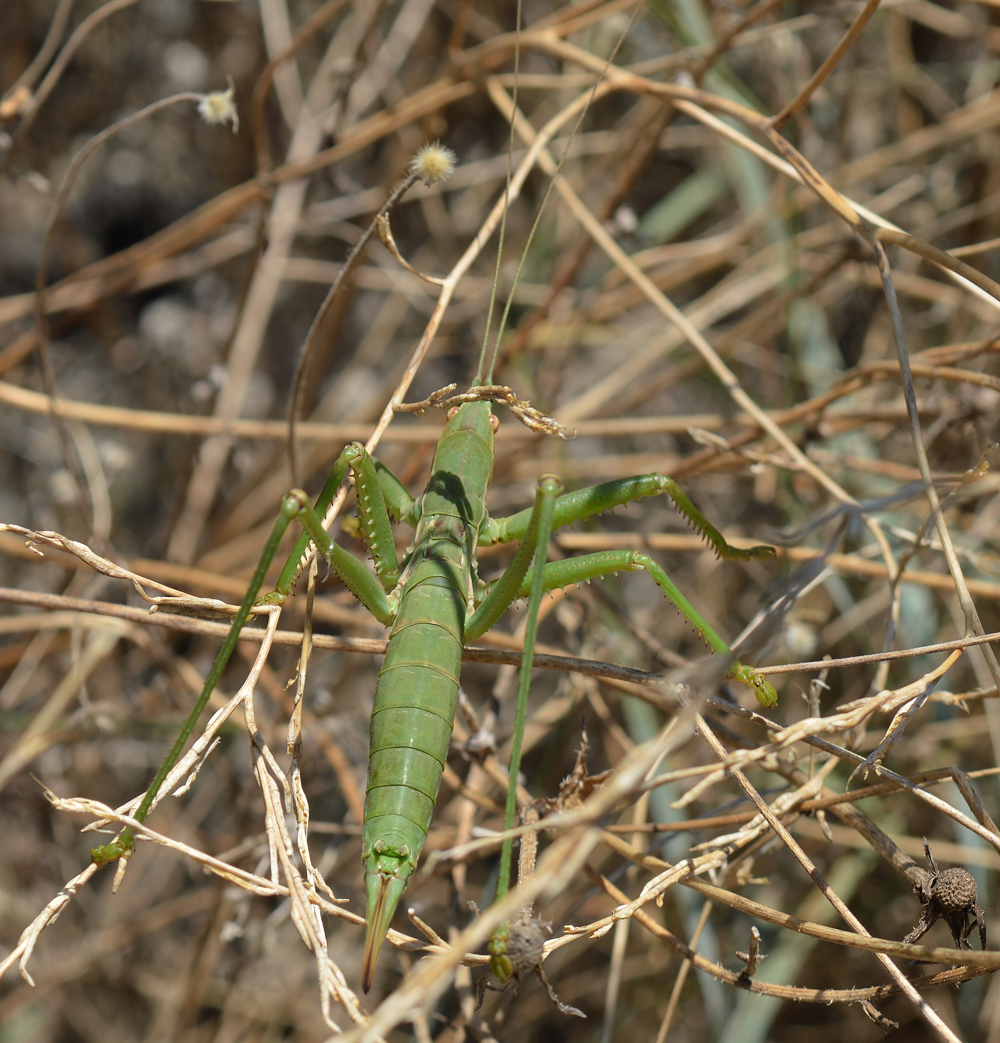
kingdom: Animalia
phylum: Arthropoda
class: Insecta
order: Orthoptera
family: Tettigoniidae
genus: Saga
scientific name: Saga hellenica
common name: Greek predatory bush-cricket
